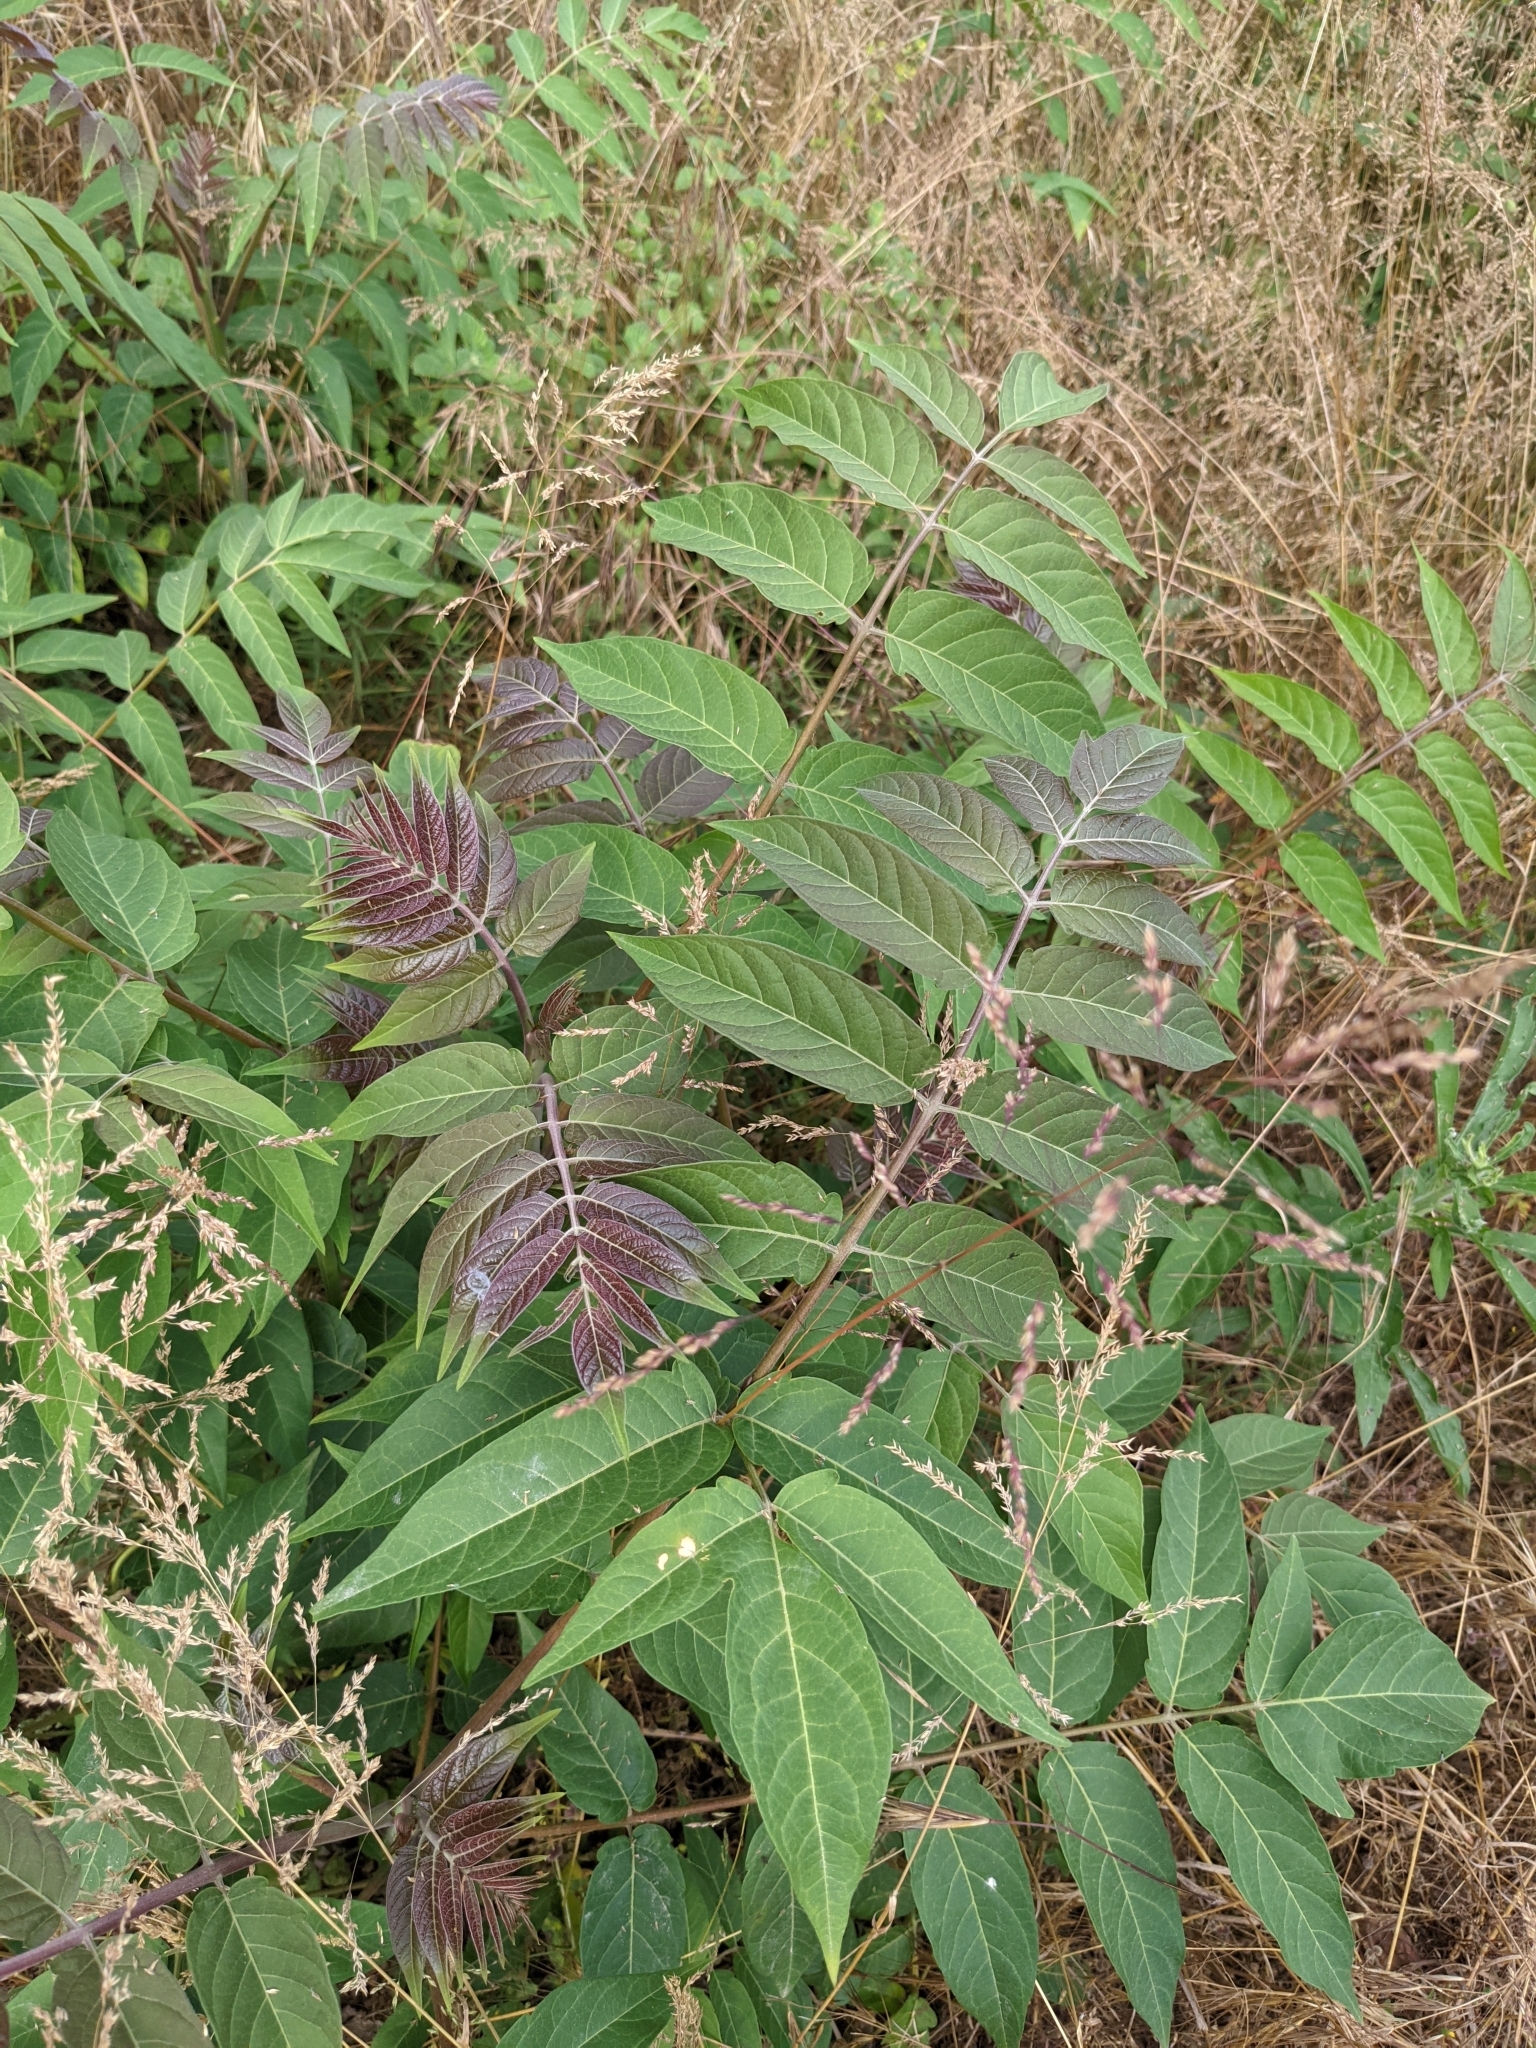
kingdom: Plantae
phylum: Tracheophyta
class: Magnoliopsida
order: Sapindales
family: Simaroubaceae
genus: Ailanthus
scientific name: Ailanthus altissima
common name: Tree-of-heaven
